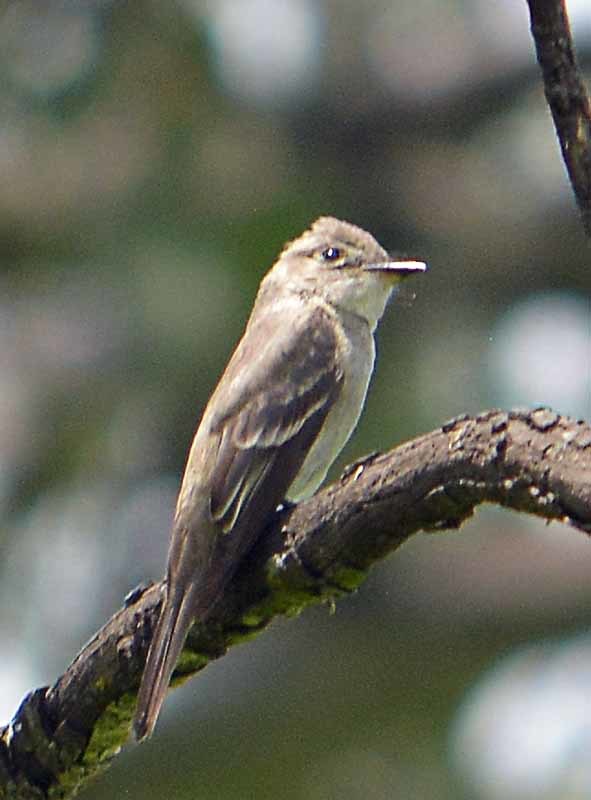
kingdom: Animalia
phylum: Chordata
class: Aves
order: Passeriformes
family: Tyrannidae
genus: Contopus
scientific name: Contopus sordidulus
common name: Western wood-pewee
